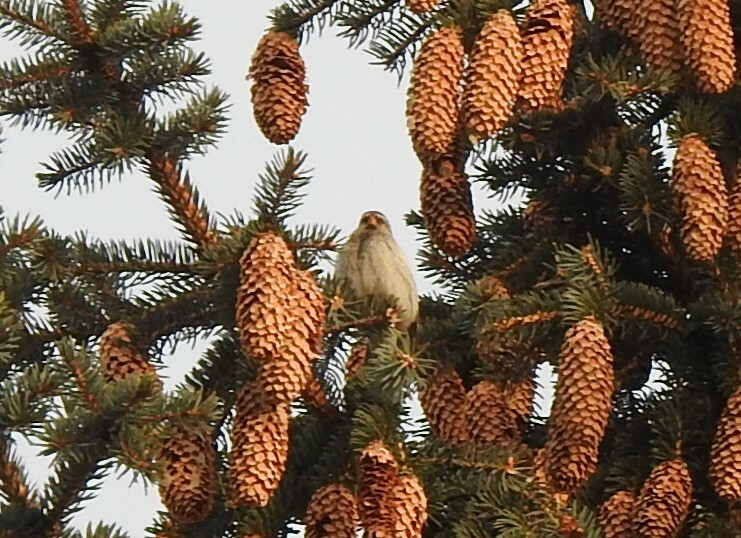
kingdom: Animalia
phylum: Chordata
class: Aves
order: Passeriformes
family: Fringillidae
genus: Acanthis
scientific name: Acanthis flammea
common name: Common redpoll
